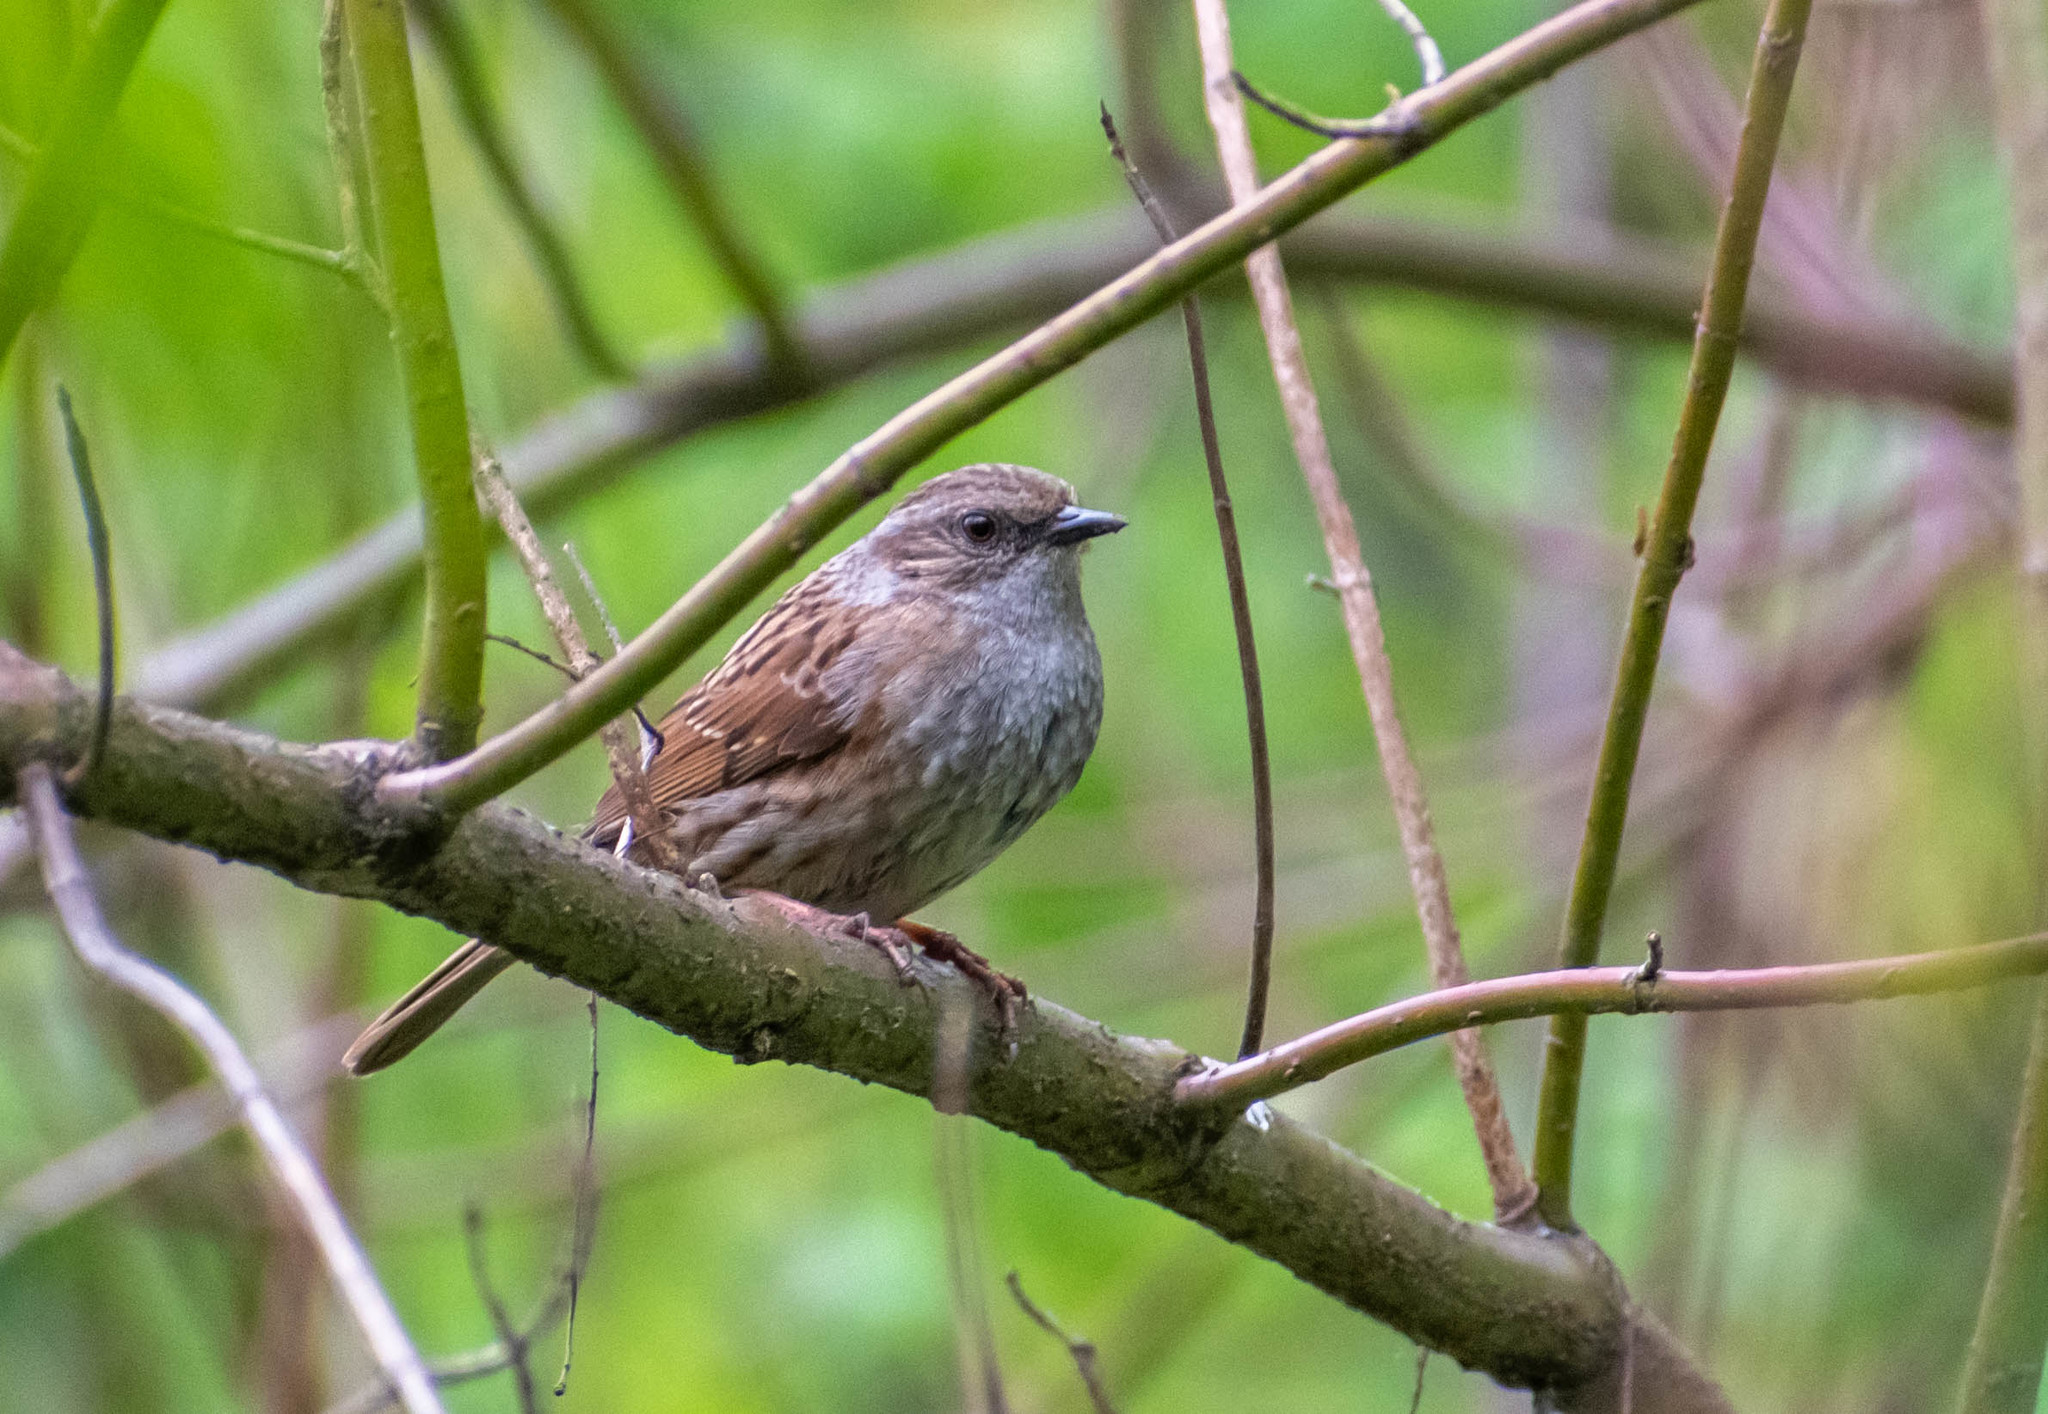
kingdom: Animalia
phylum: Chordata
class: Aves
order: Passeriformes
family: Prunellidae
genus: Prunella
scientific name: Prunella modularis
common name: Dunnock
